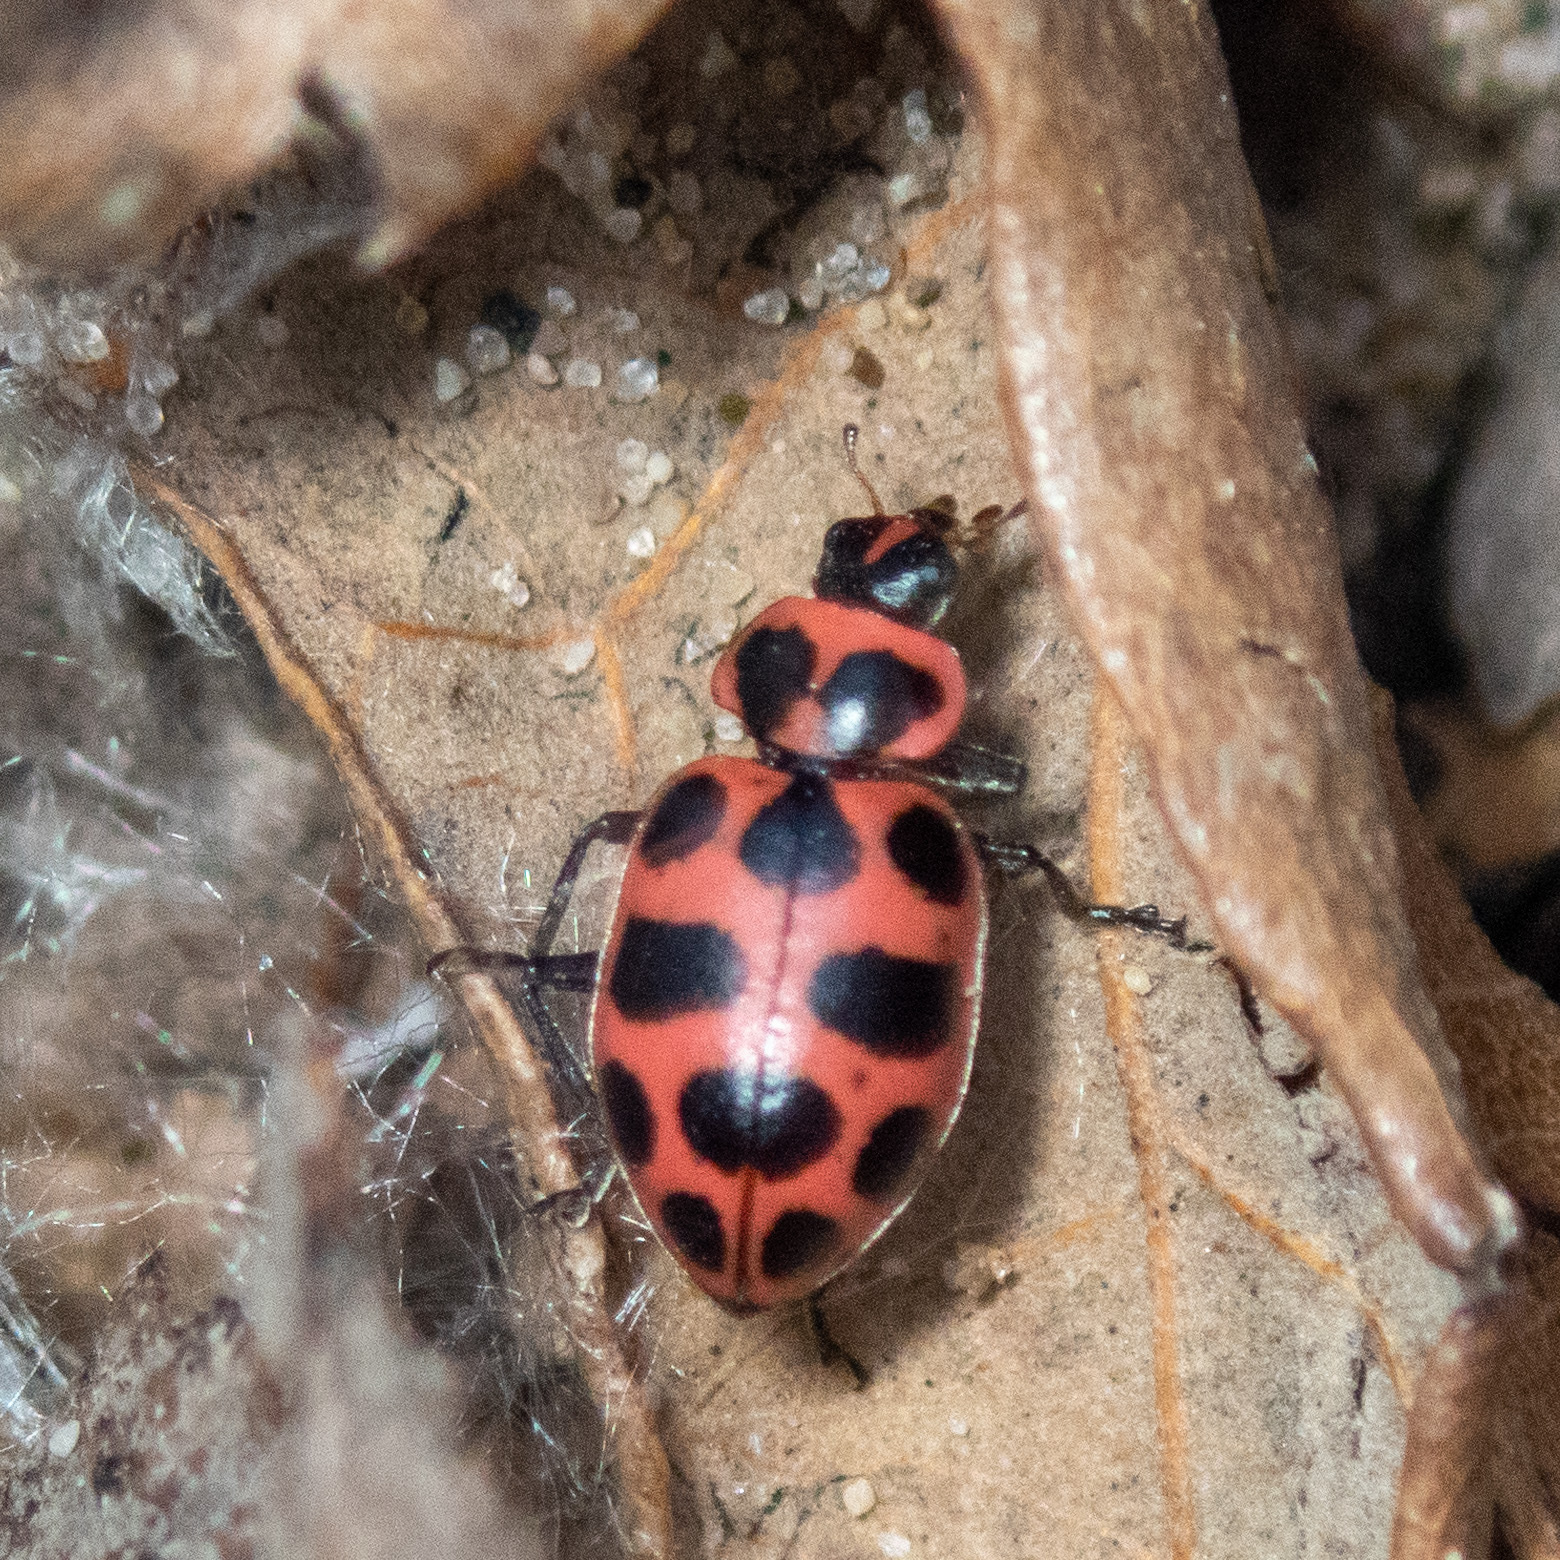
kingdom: Animalia
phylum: Arthropoda
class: Insecta
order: Coleoptera
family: Coccinellidae
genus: Coleomegilla
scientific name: Coleomegilla maculata
